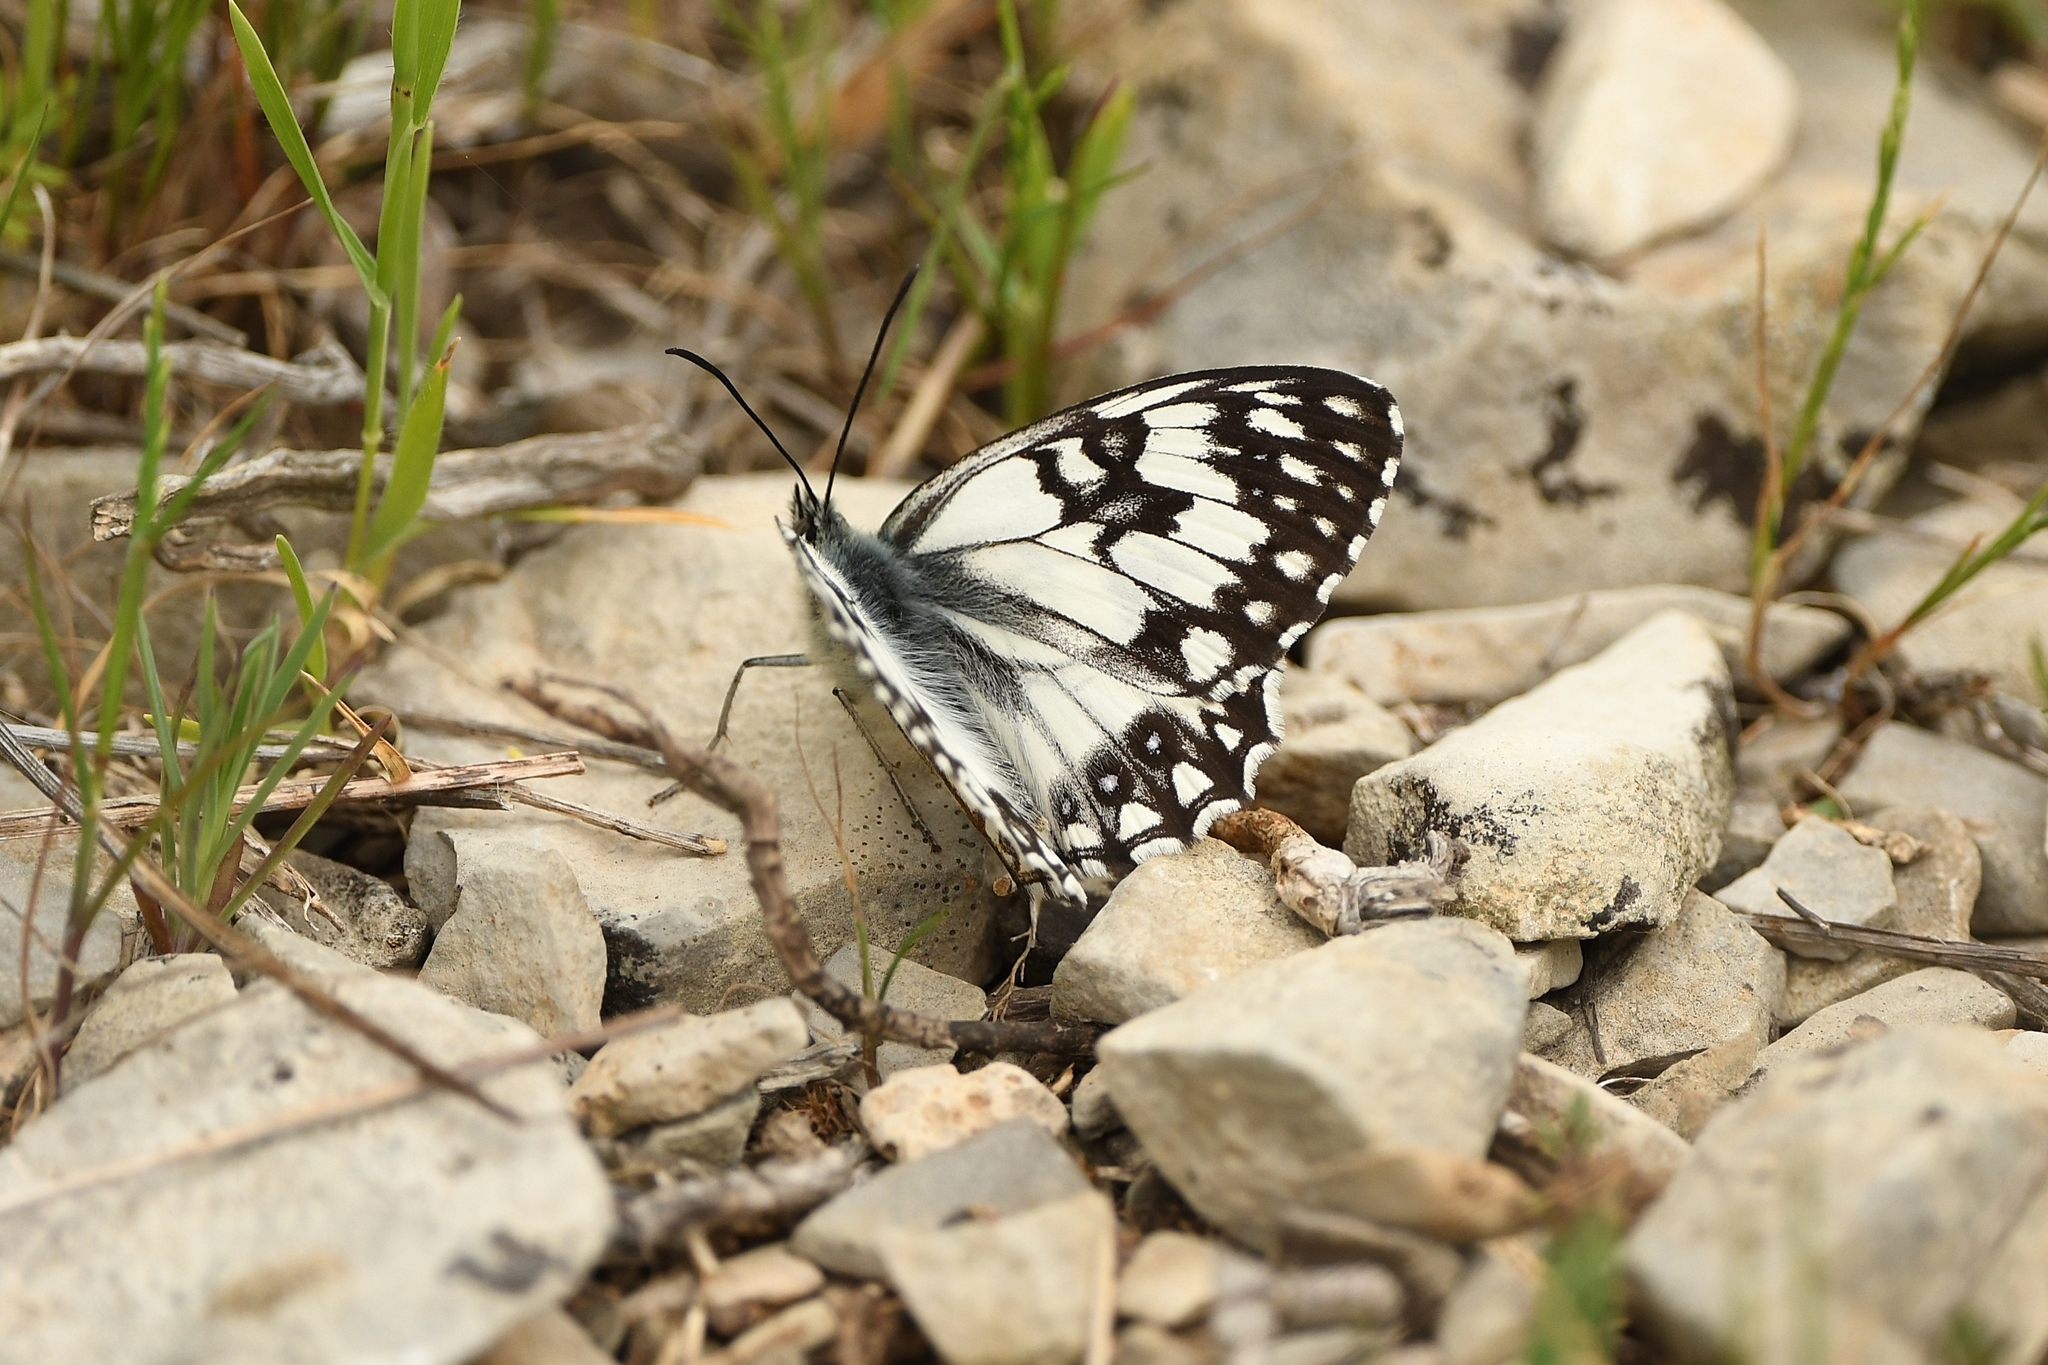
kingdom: Animalia
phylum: Arthropoda
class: Insecta
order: Lepidoptera
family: Nymphalidae
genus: Melanargia
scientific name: Melanargia occitanica
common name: Western marbled white
